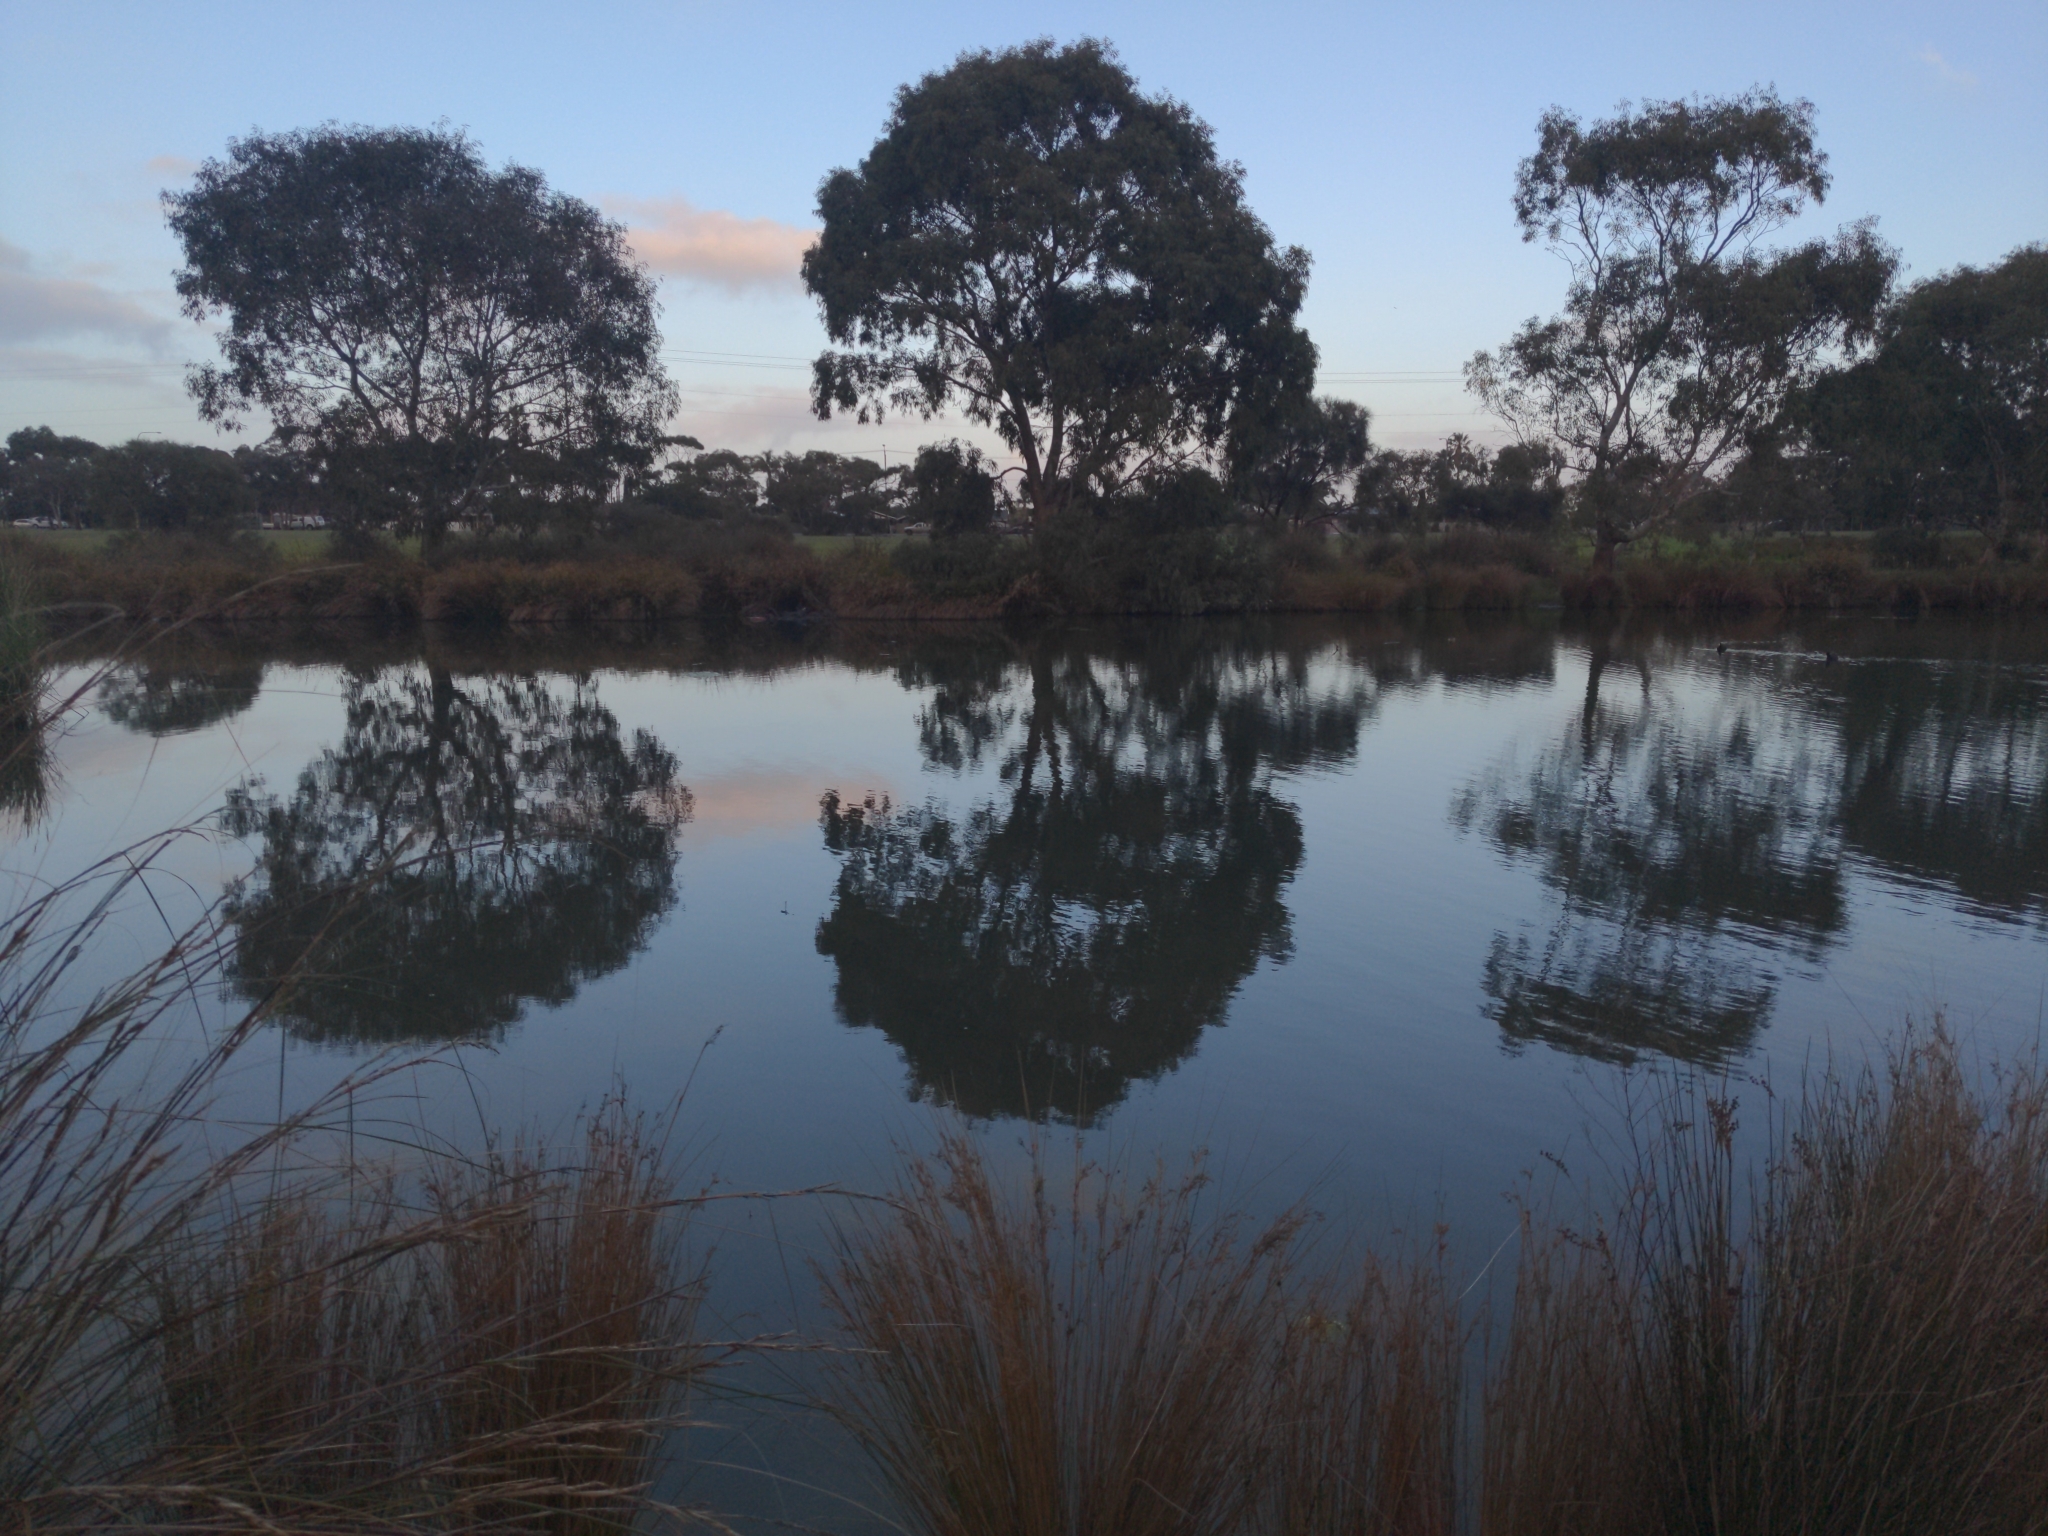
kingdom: Animalia
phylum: Chordata
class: Amphibia
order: Anura
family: Myobatrachidae
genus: Crinia
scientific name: Crinia signifera
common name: Brown froglet
